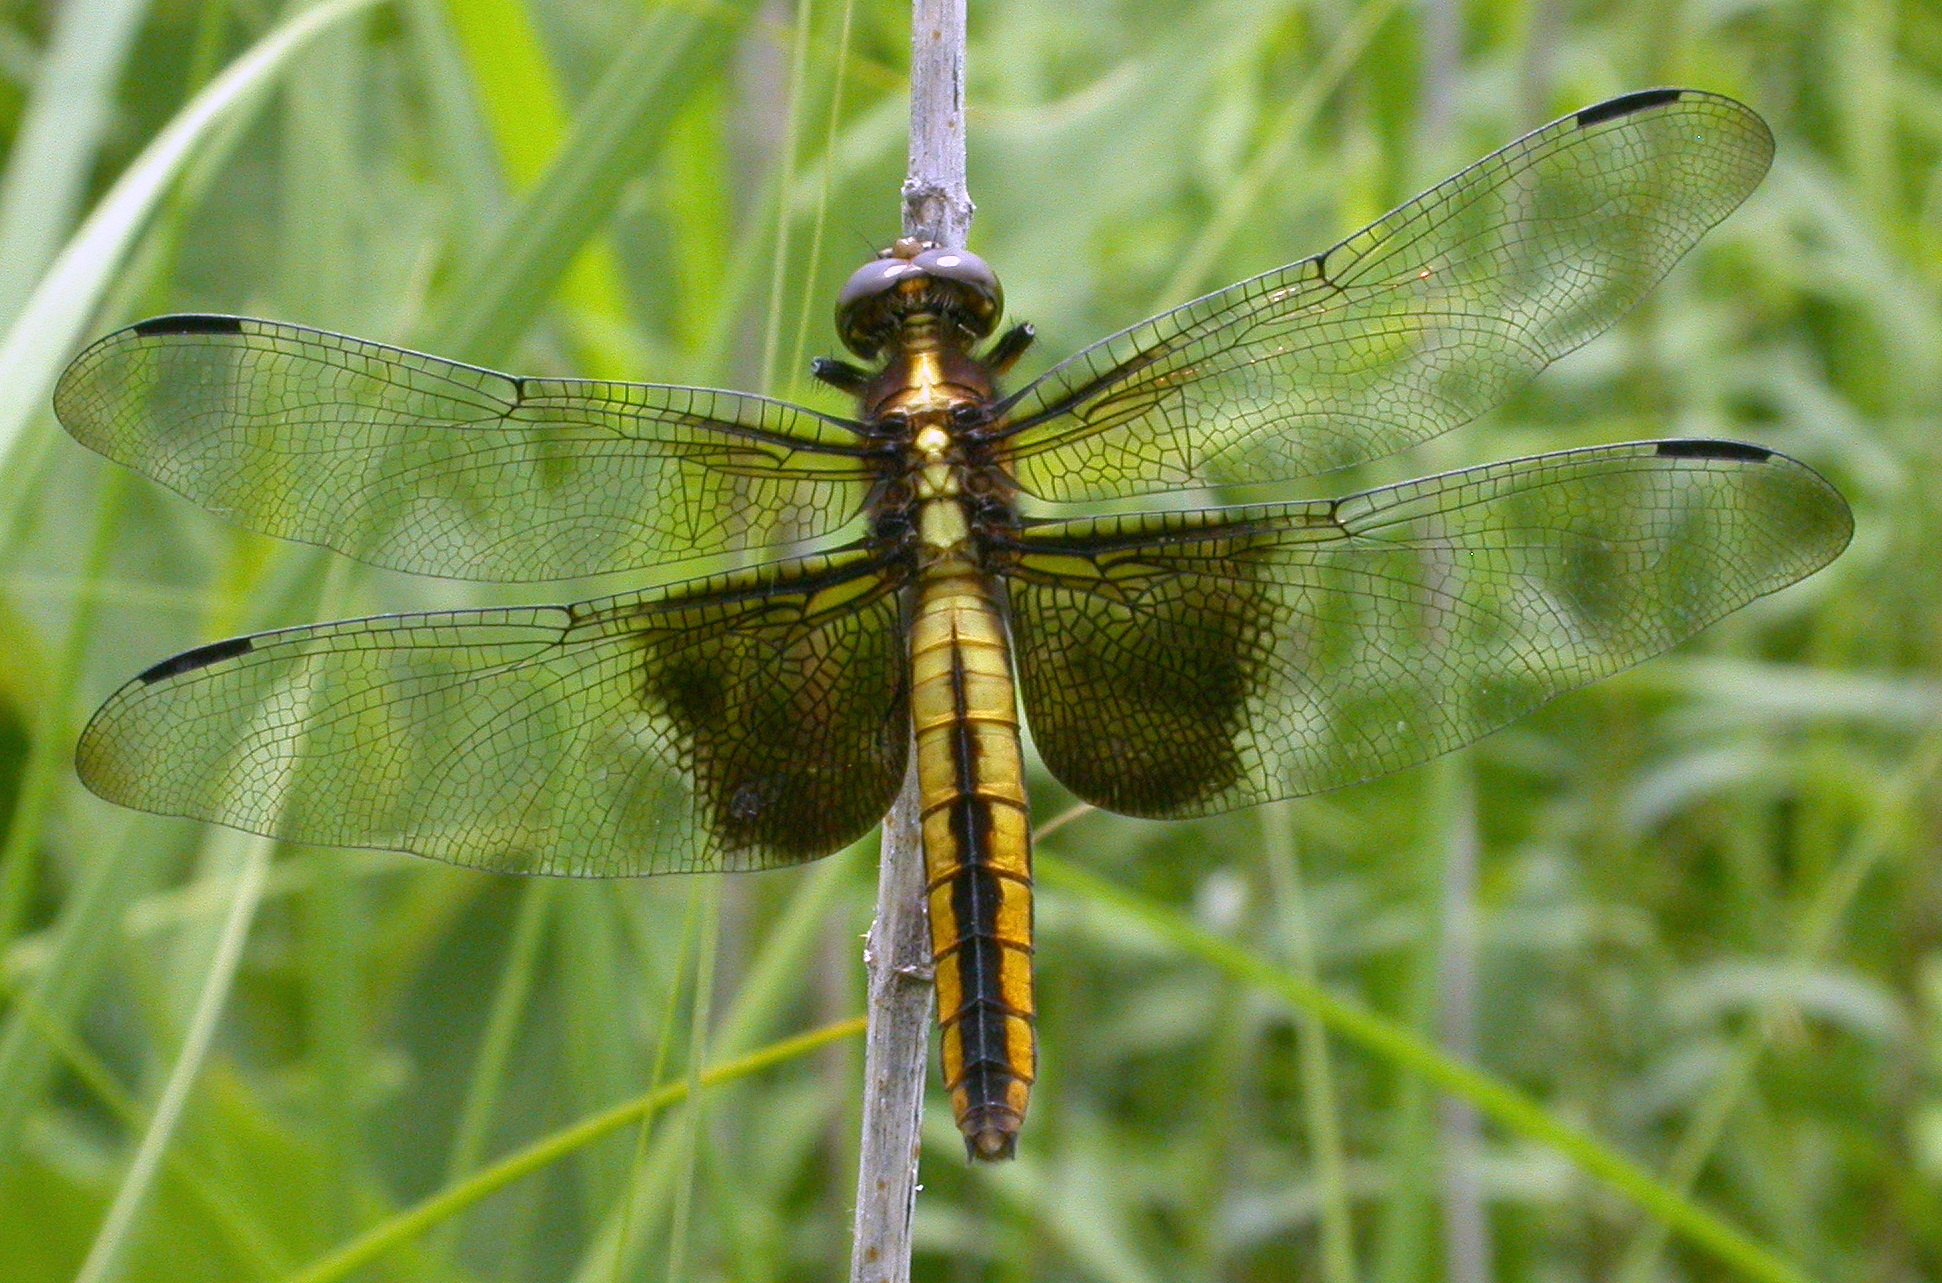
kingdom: Animalia
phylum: Arthropoda
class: Insecta
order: Odonata
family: Libellulidae
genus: Libellula
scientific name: Libellula luctuosa
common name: Widow skimmer
